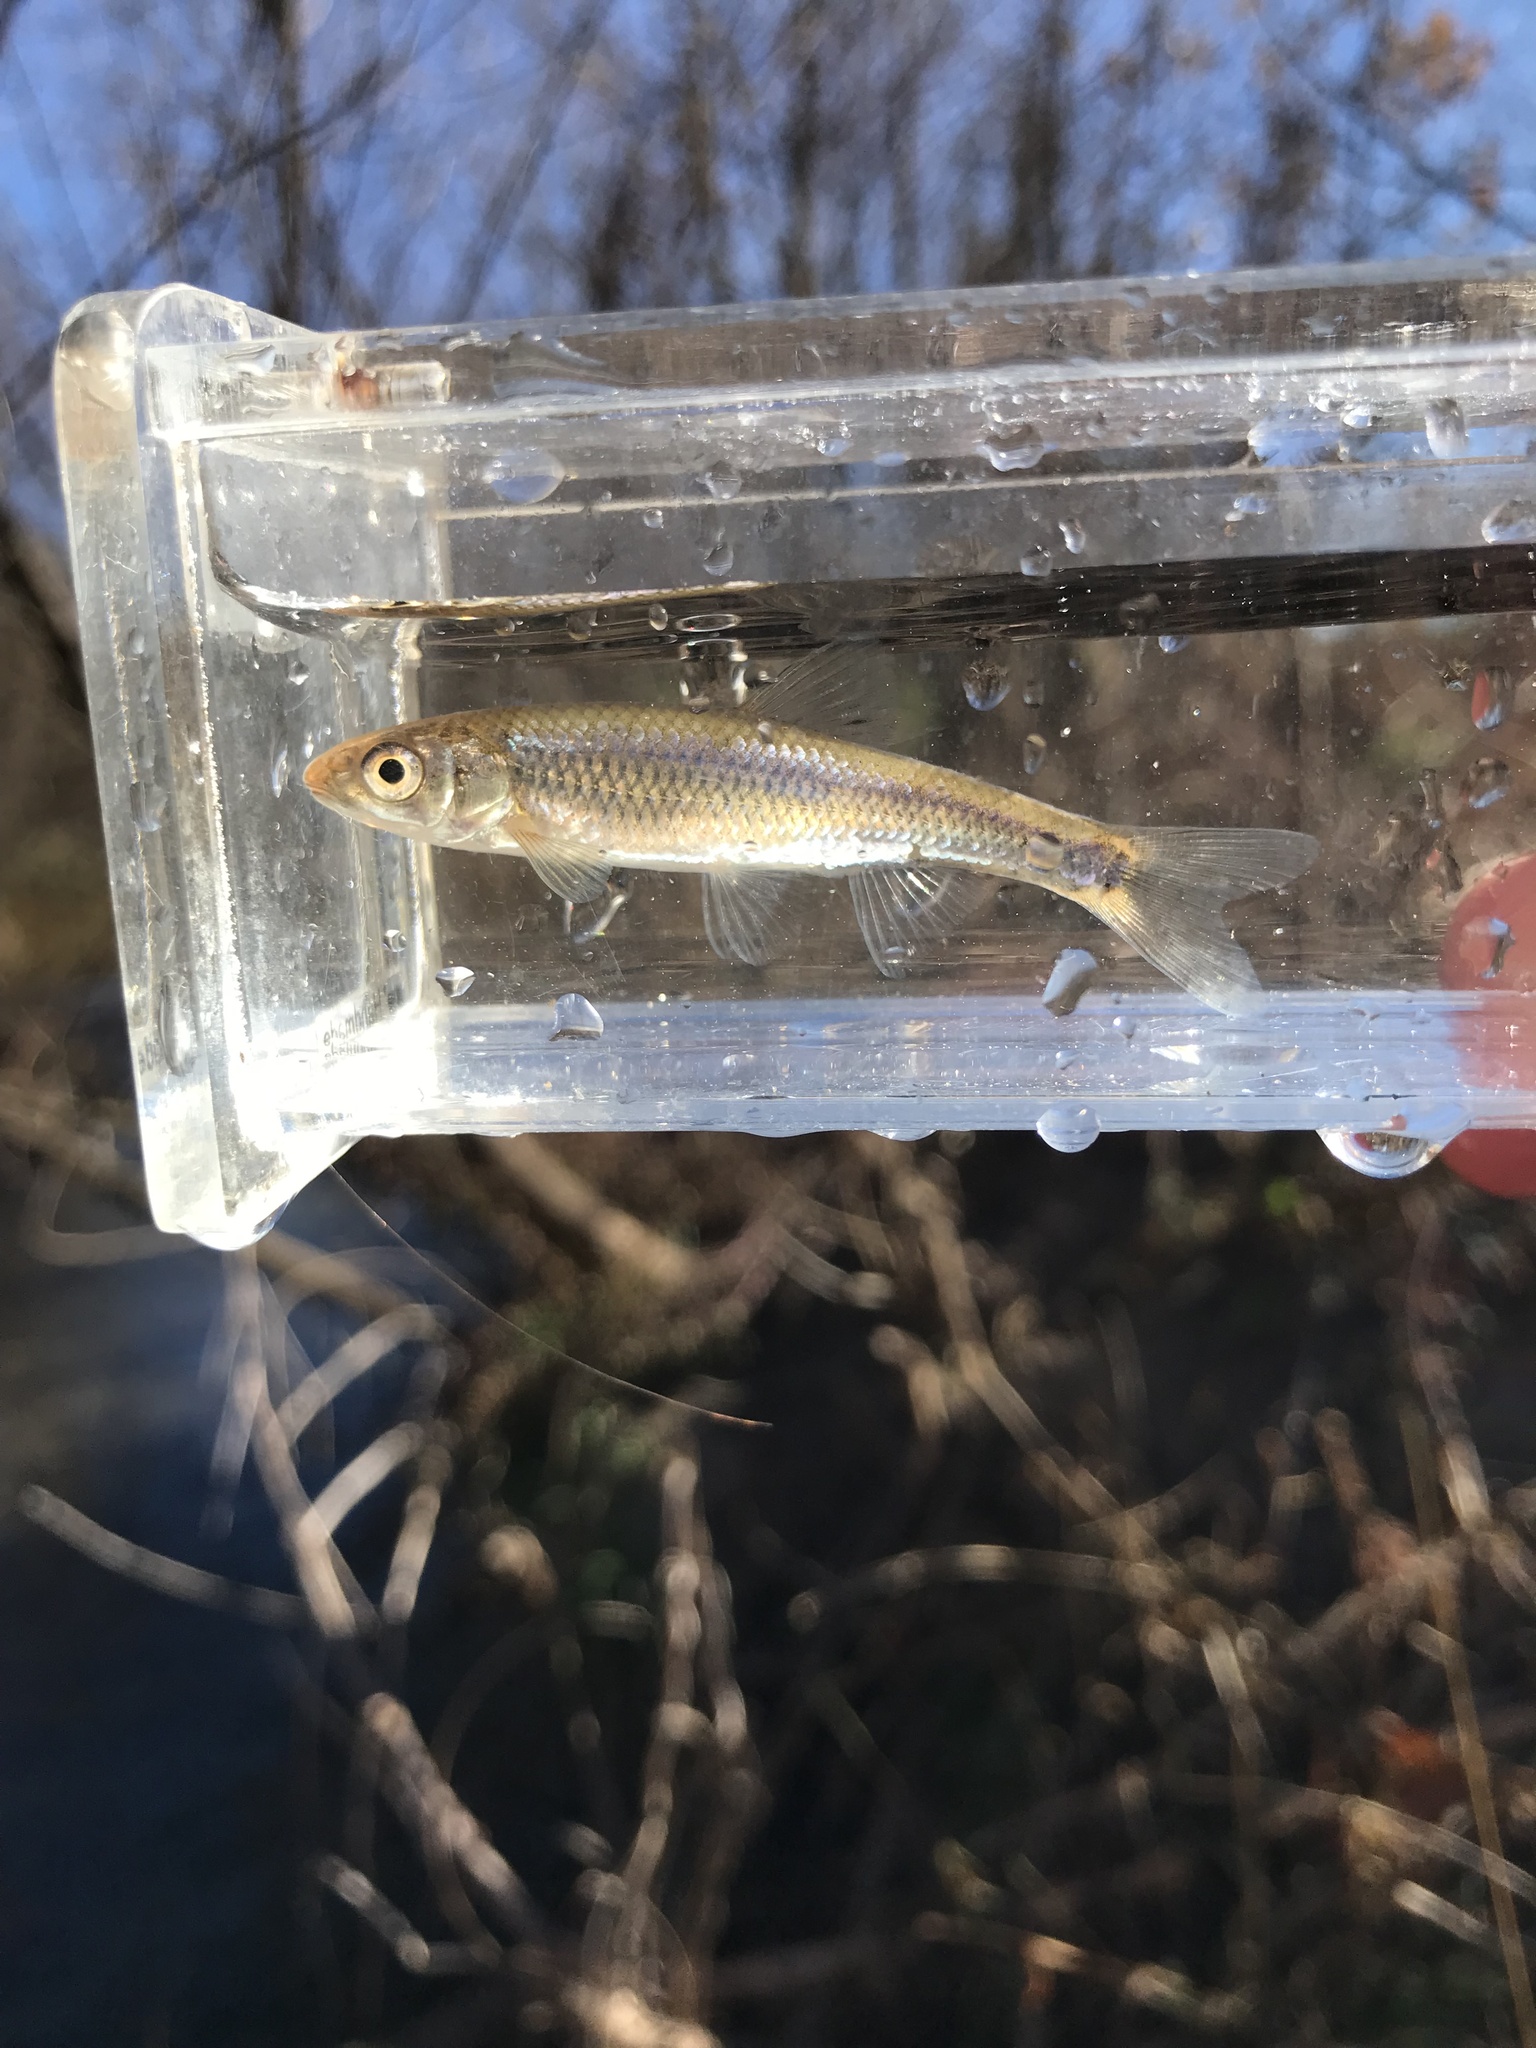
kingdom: Animalia
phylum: Chordata
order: Cypriniformes
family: Cyprinidae
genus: Cyprinella
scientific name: Cyprinella galactura
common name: Whitetail shiner
